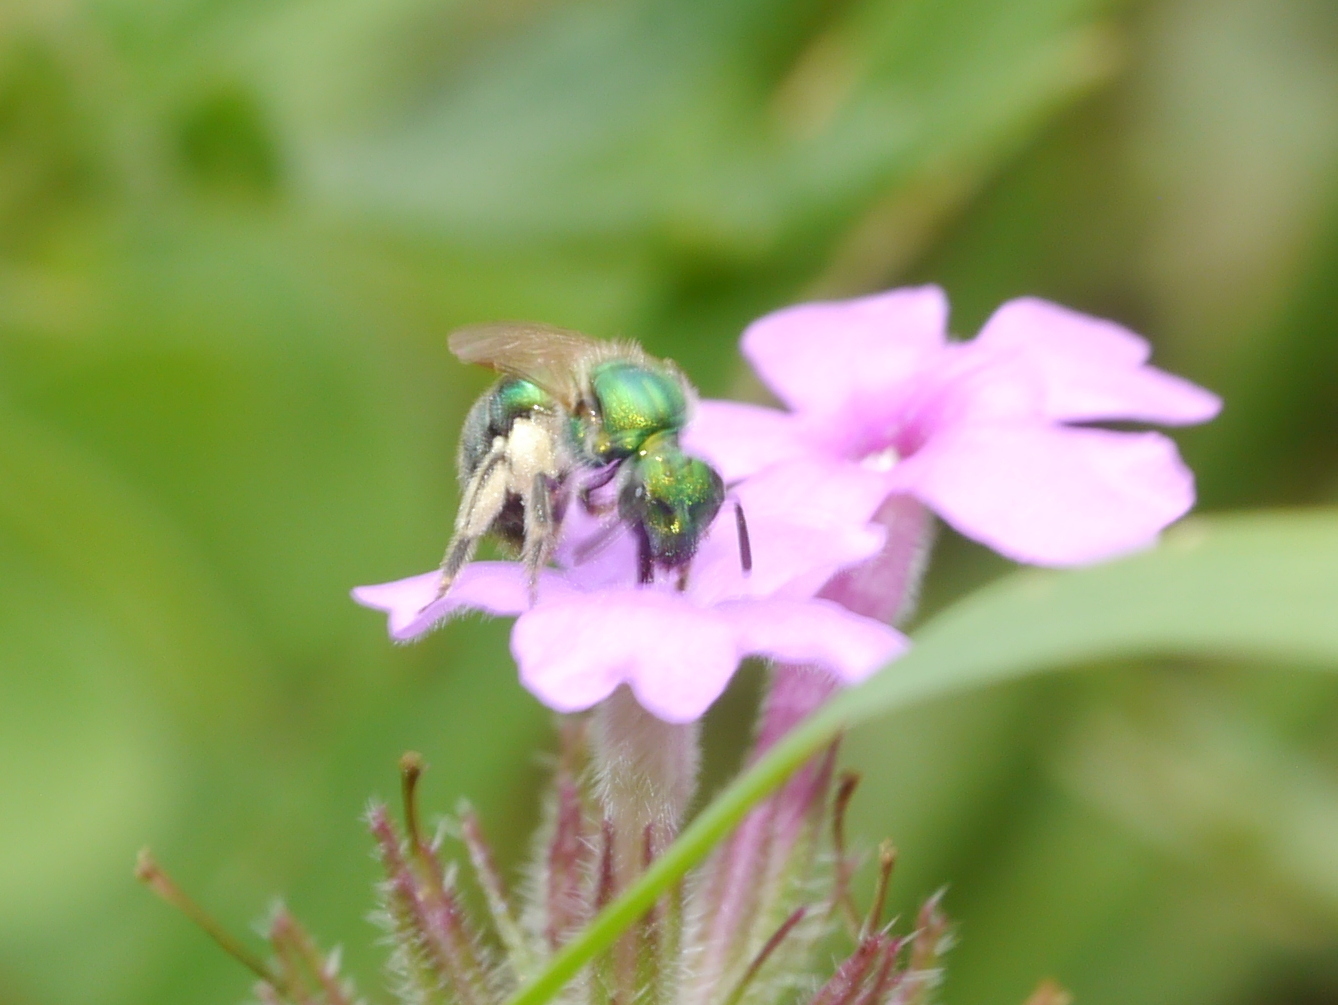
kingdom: Animalia
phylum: Arthropoda
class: Insecta
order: Hymenoptera
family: Halictidae
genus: Augochlorella
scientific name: Augochlorella
